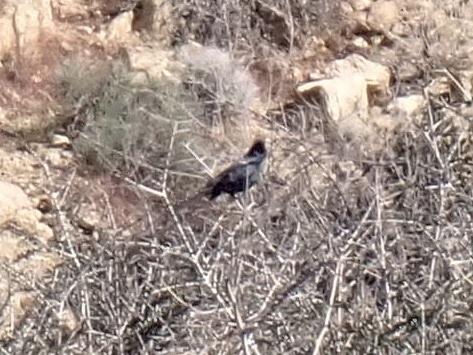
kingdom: Animalia
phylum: Chordata
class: Aves
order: Passeriformes
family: Ptilogonatidae
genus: Phainopepla
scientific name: Phainopepla nitens
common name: Phainopepla
